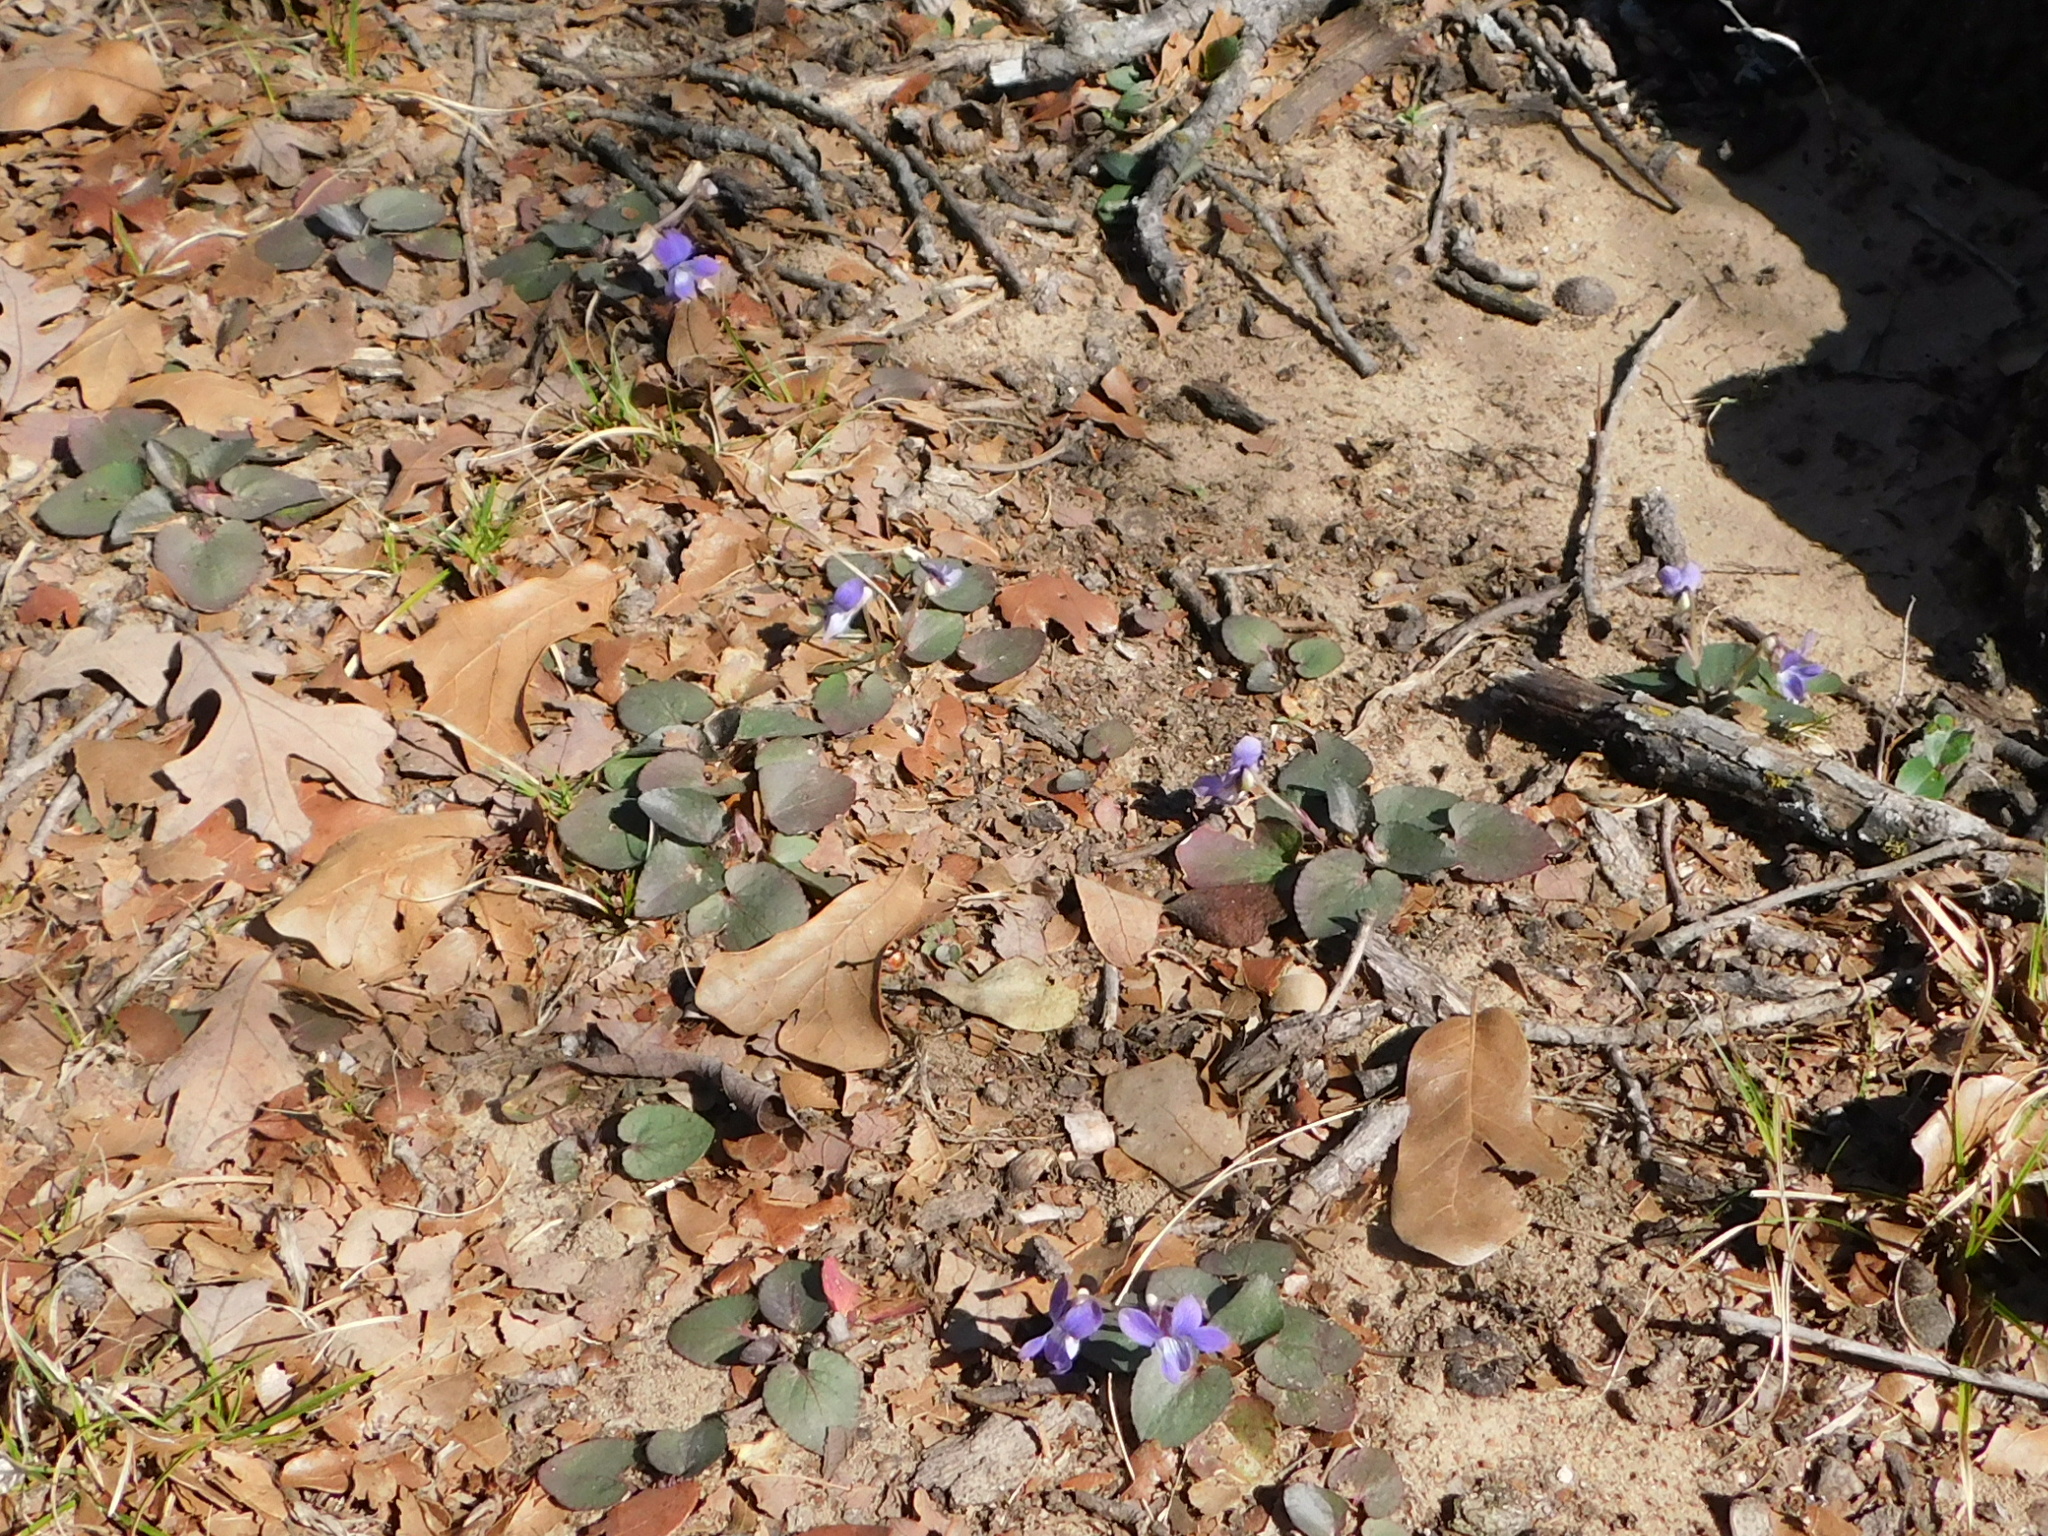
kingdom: Plantae
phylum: Tracheophyta
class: Magnoliopsida
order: Malpighiales
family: Violaceae
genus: Viola
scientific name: Viola villosa
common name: Carolina violet
